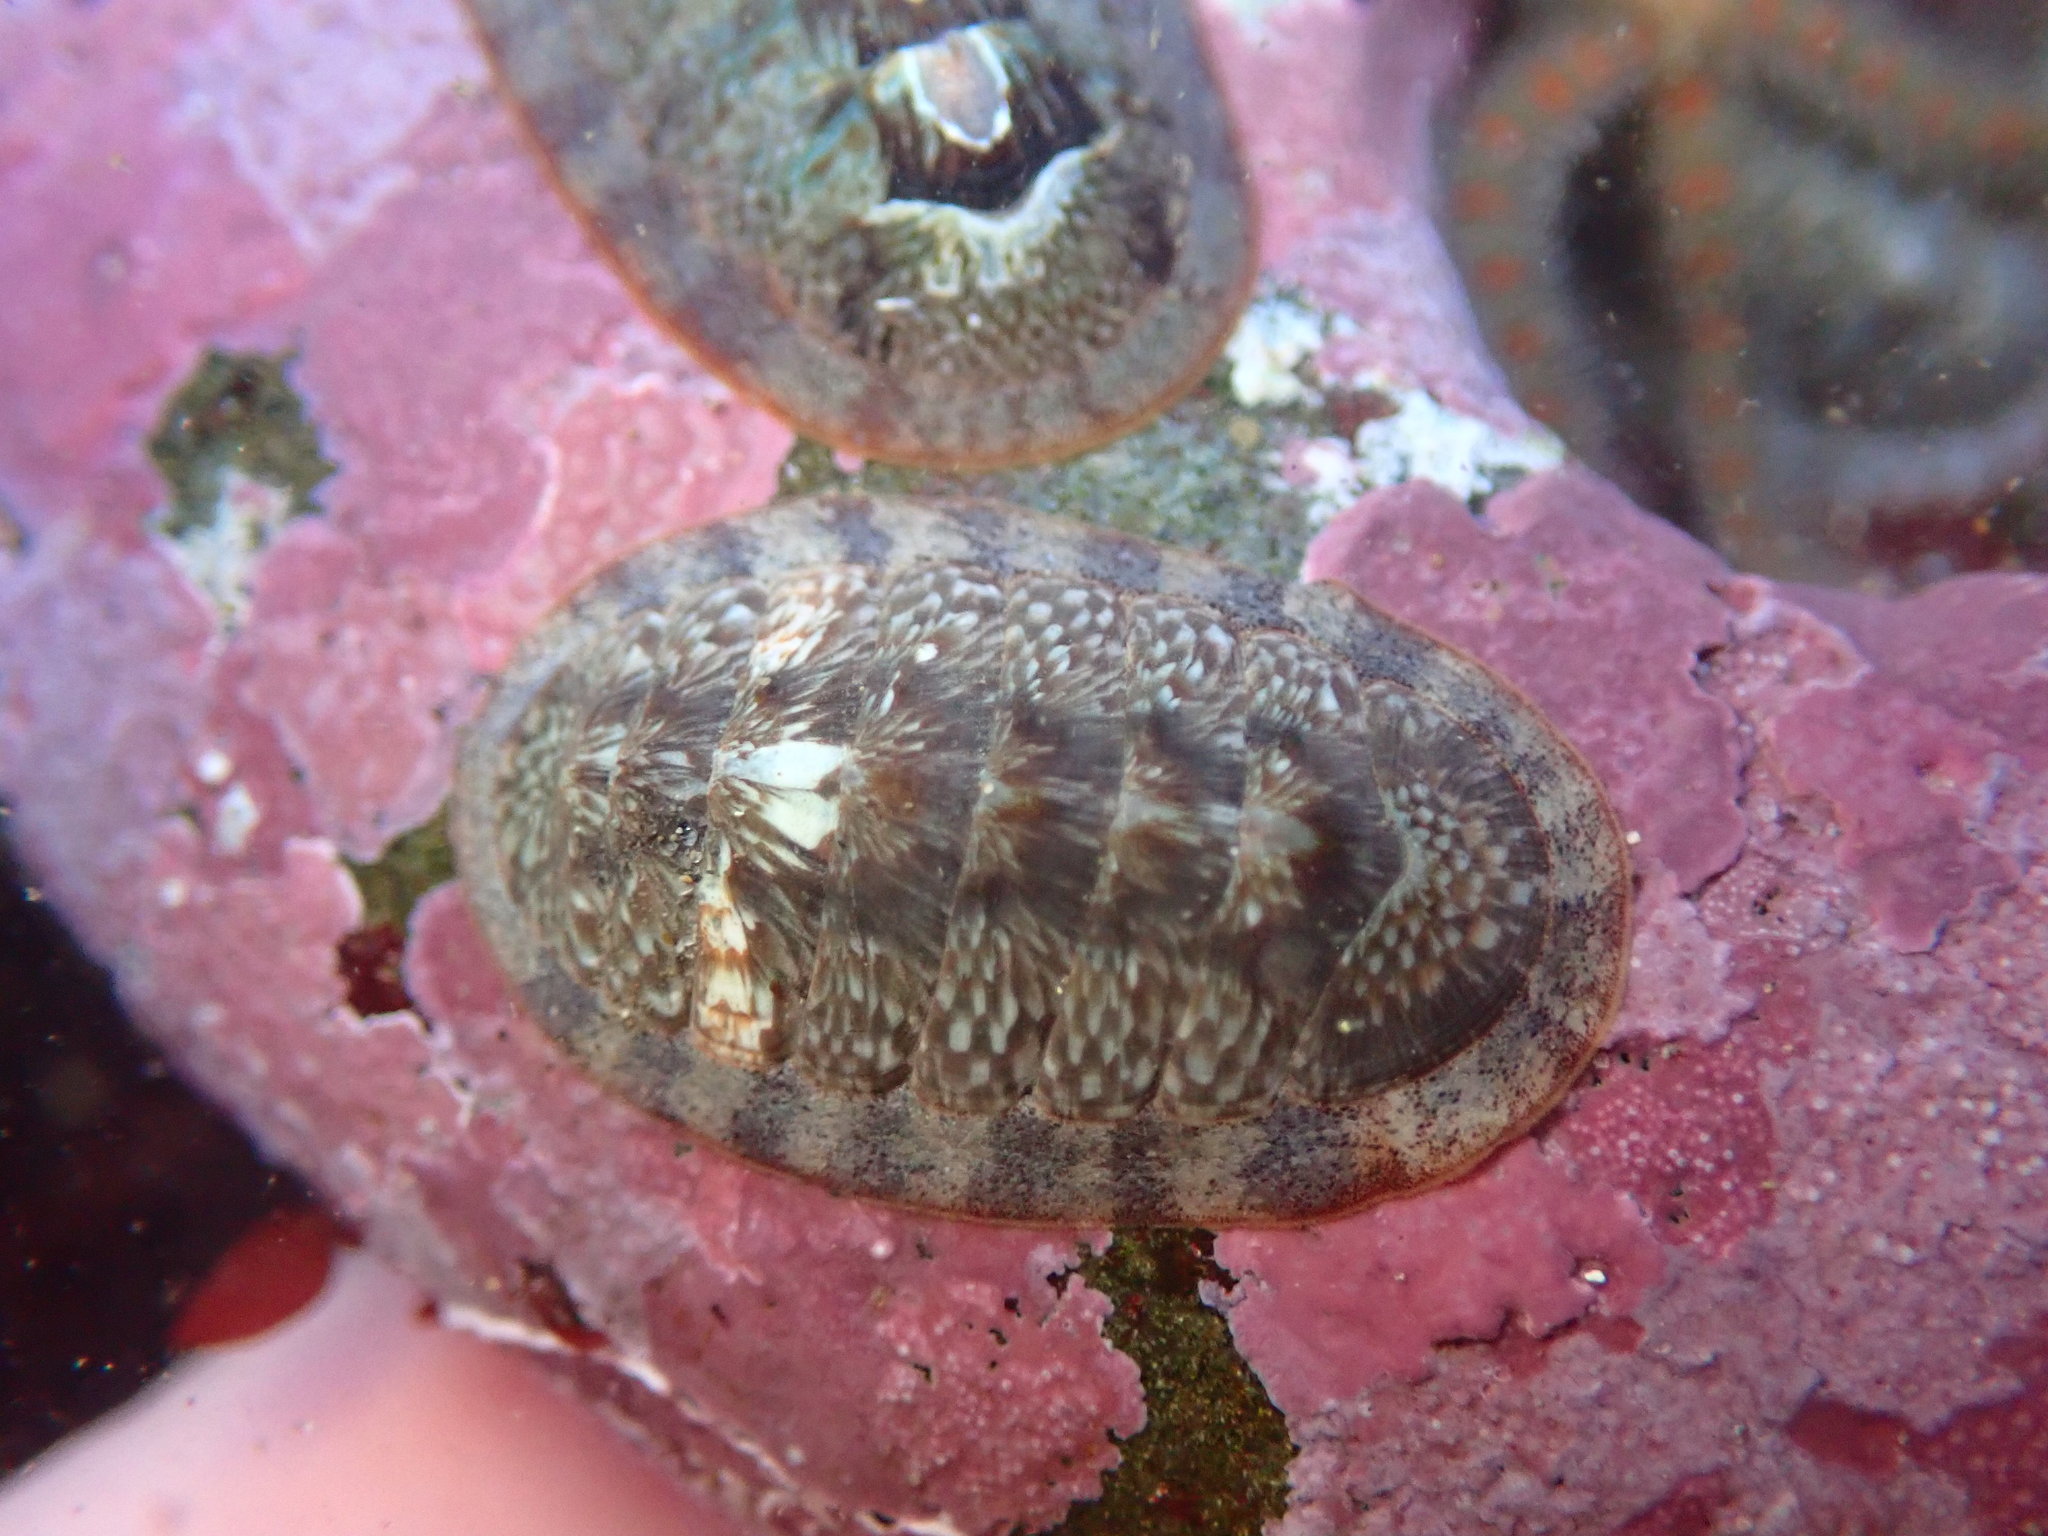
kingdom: Animalia
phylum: Mollusca
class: Polyplacophora
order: Chitonida
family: Ischnochitonidae
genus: Lepidozona
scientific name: Lepidozona radians
